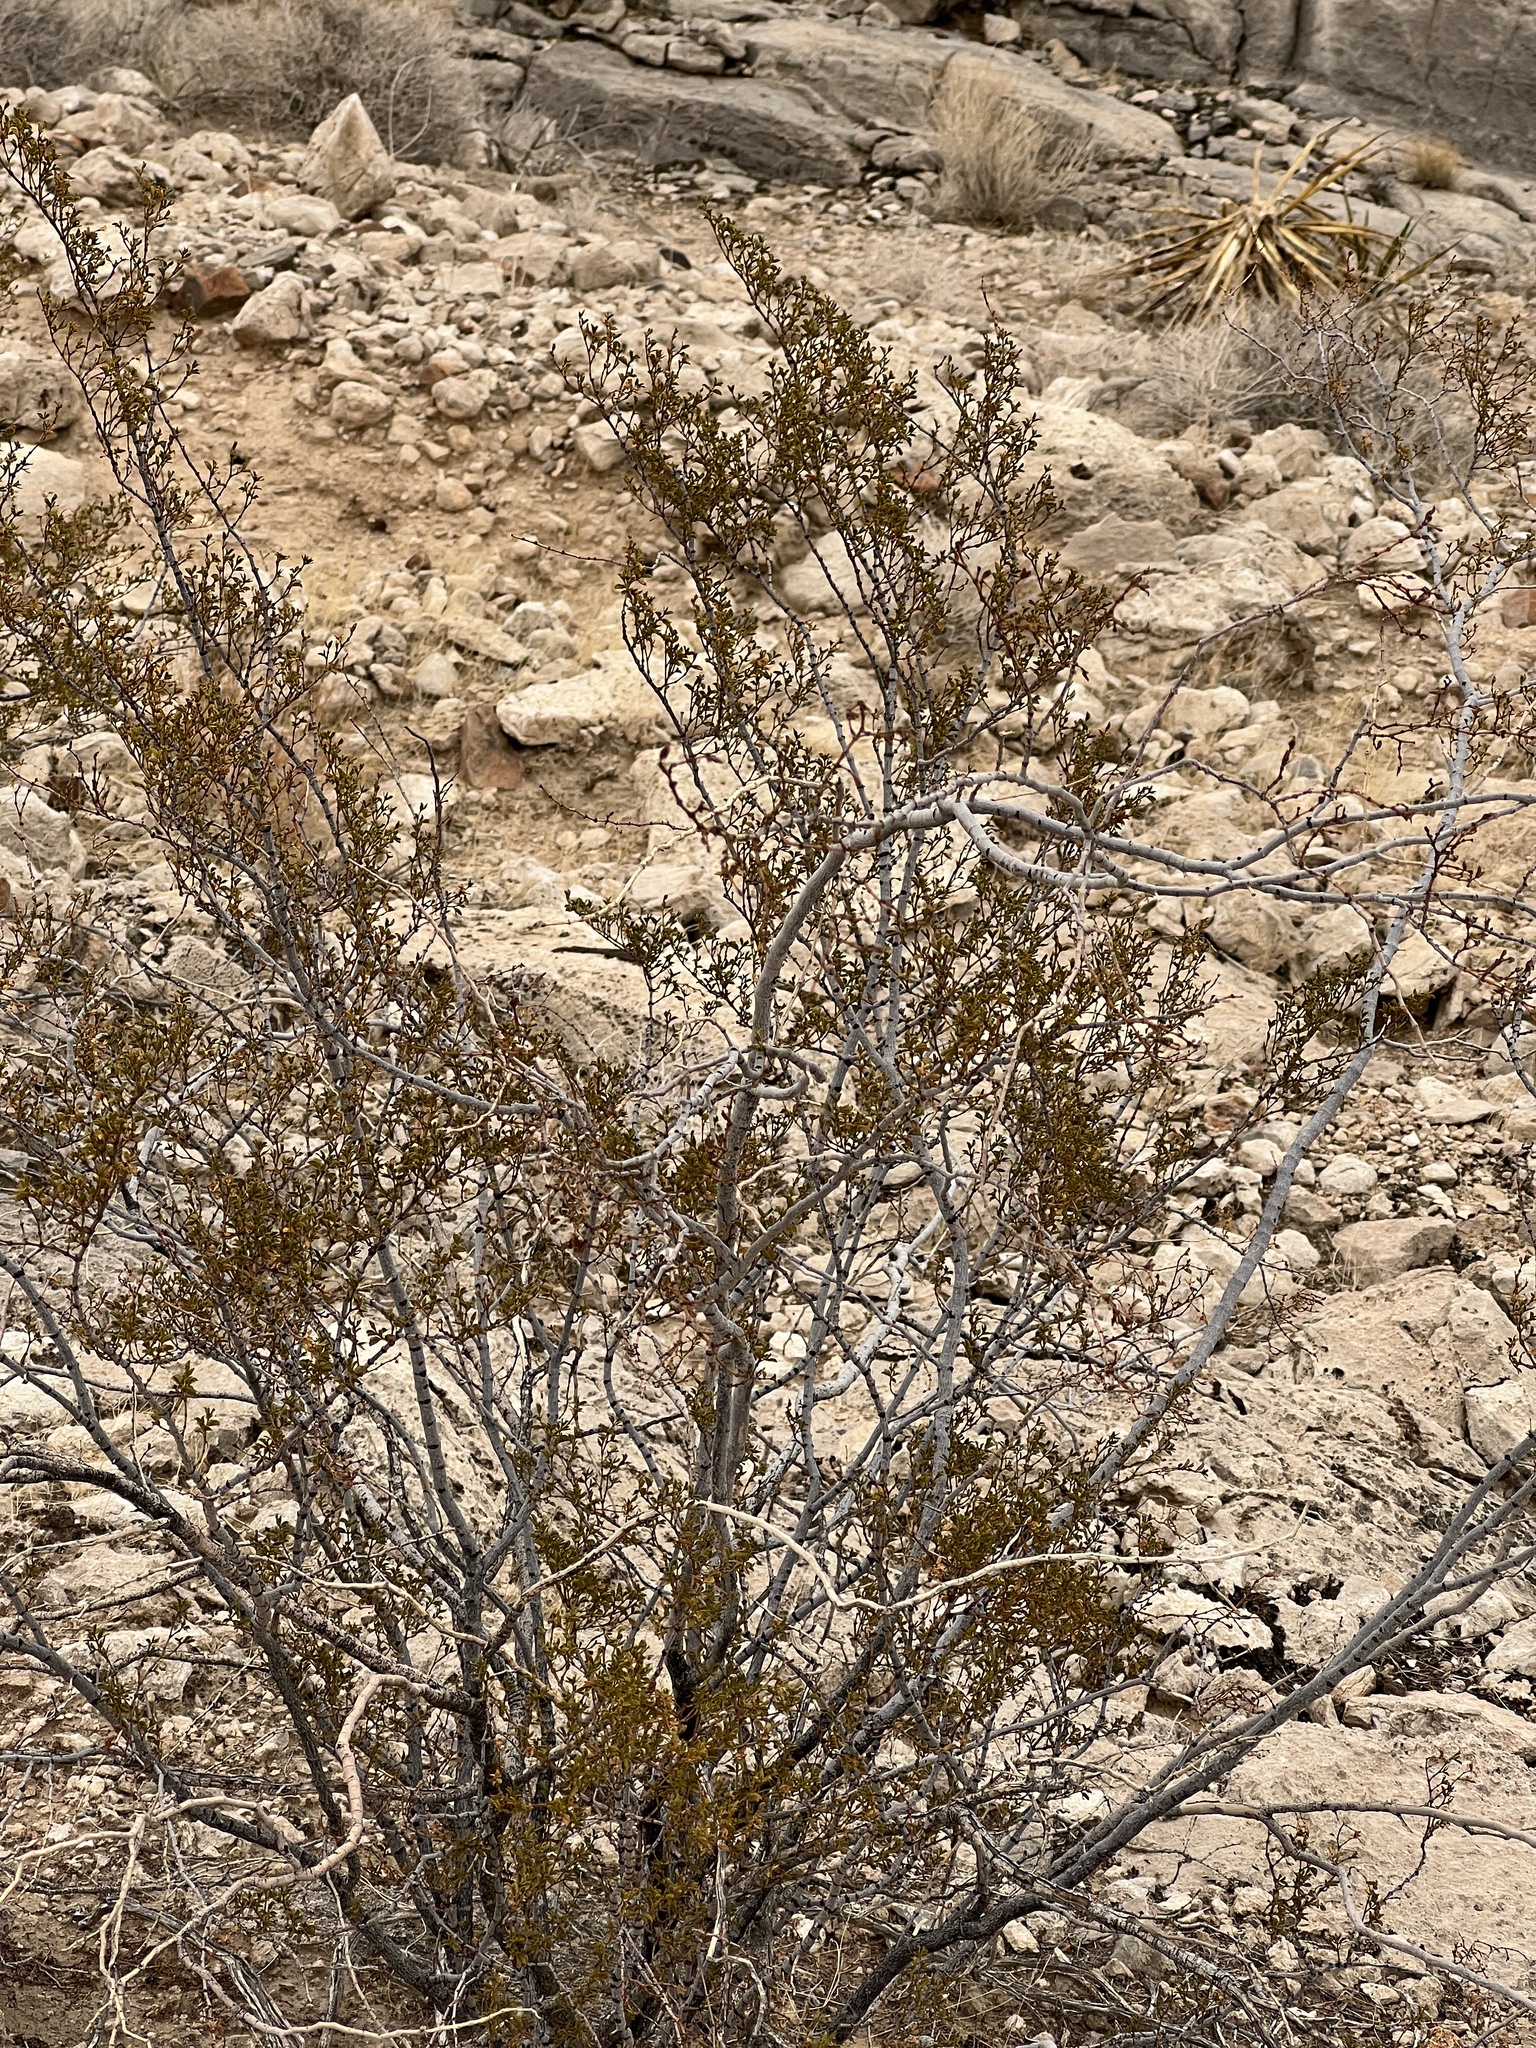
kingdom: Plantae
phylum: Tracheophyta
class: Magnoliopsida
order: Zygophyllales
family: Zygophyllaceae
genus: Larrea
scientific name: Larrea tridentata
